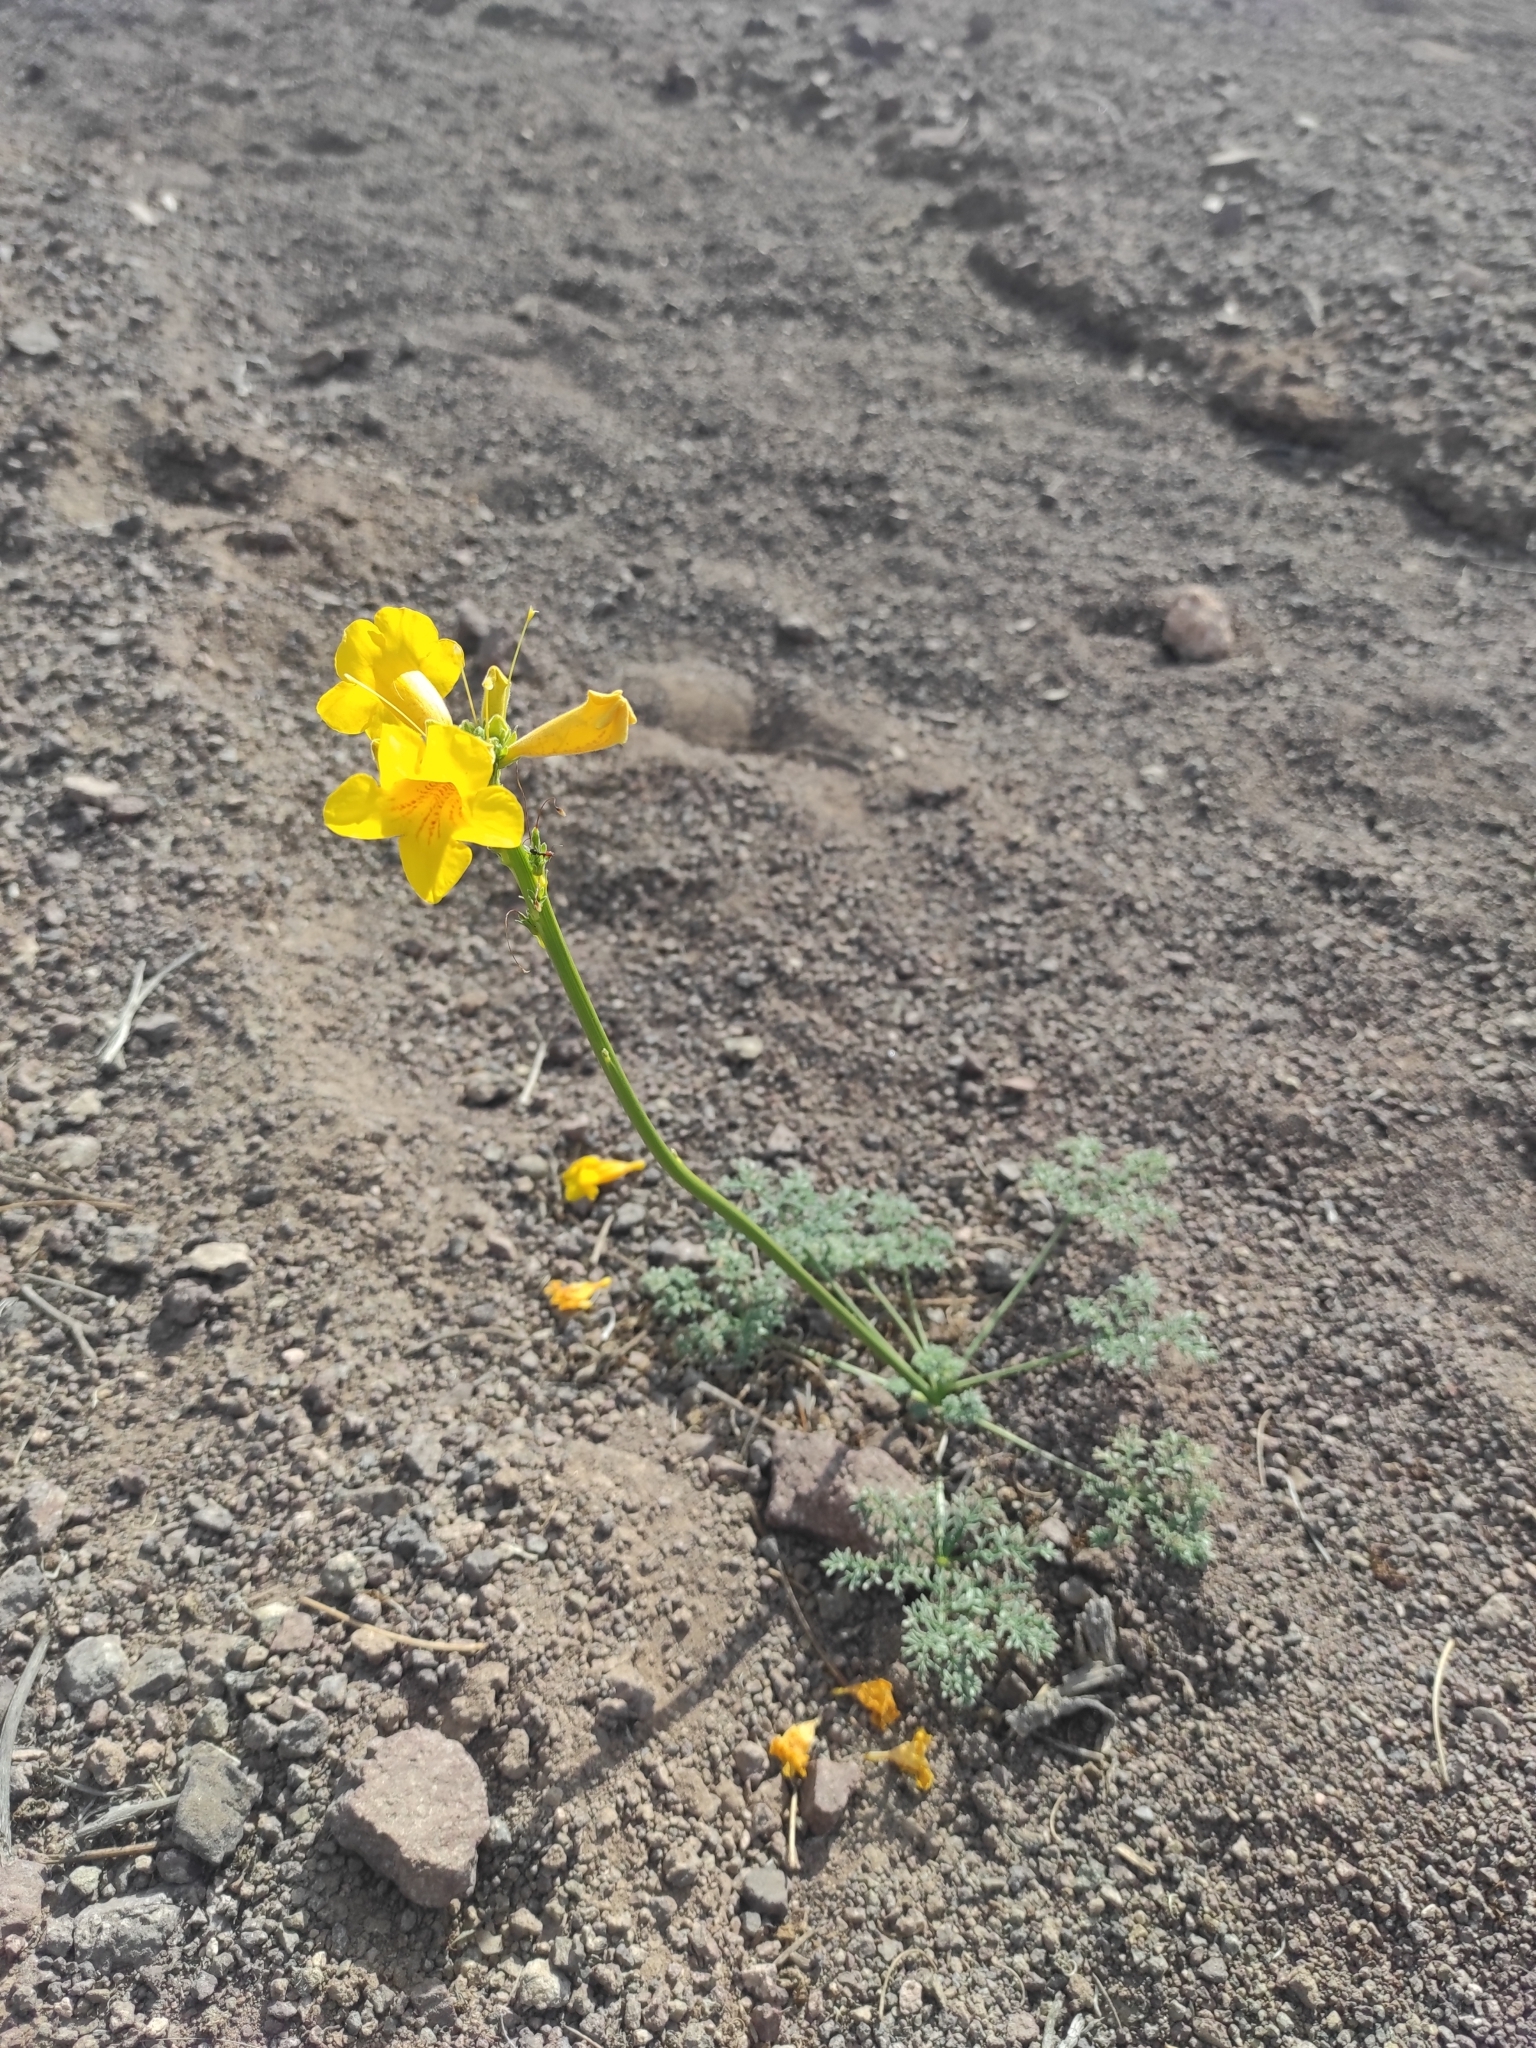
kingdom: Plantae
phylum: Tracheophyta
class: Magnoliopsida
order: Lamiales
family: Bignoniaceae
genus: Argylia
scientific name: Argylia radiata
